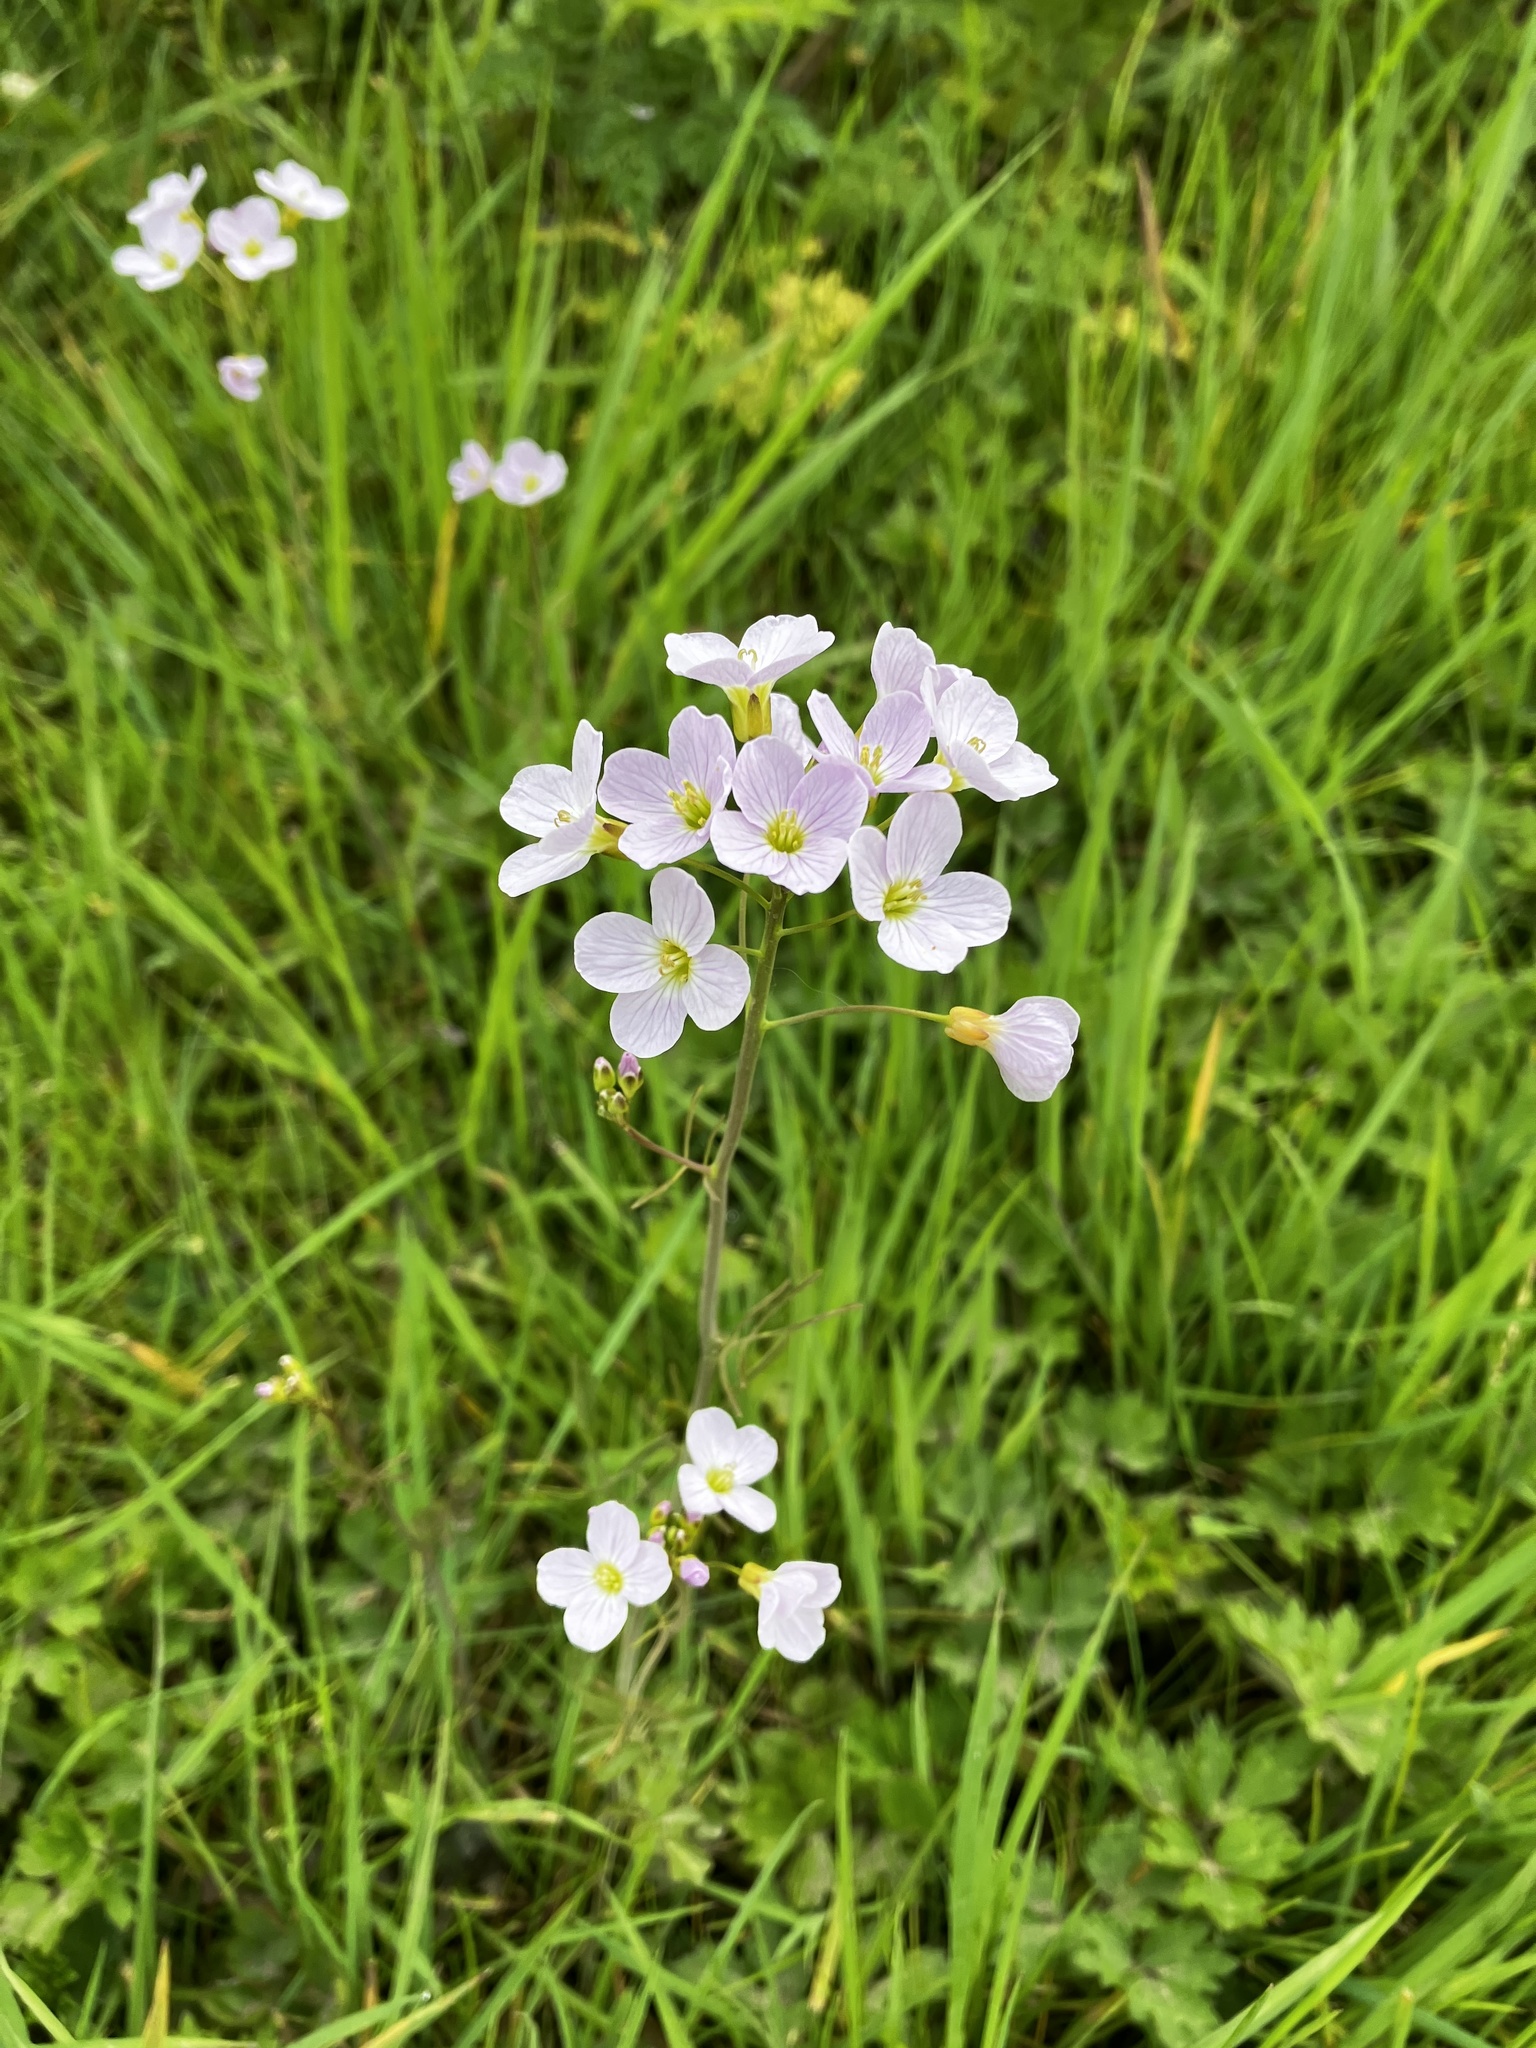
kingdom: Plantae
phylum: Tracheophyta
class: Magnoliopsida
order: Brassicales
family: Brassicaceae
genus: Cardamine
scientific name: Cardamine pratensis
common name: Cuckoo flower
